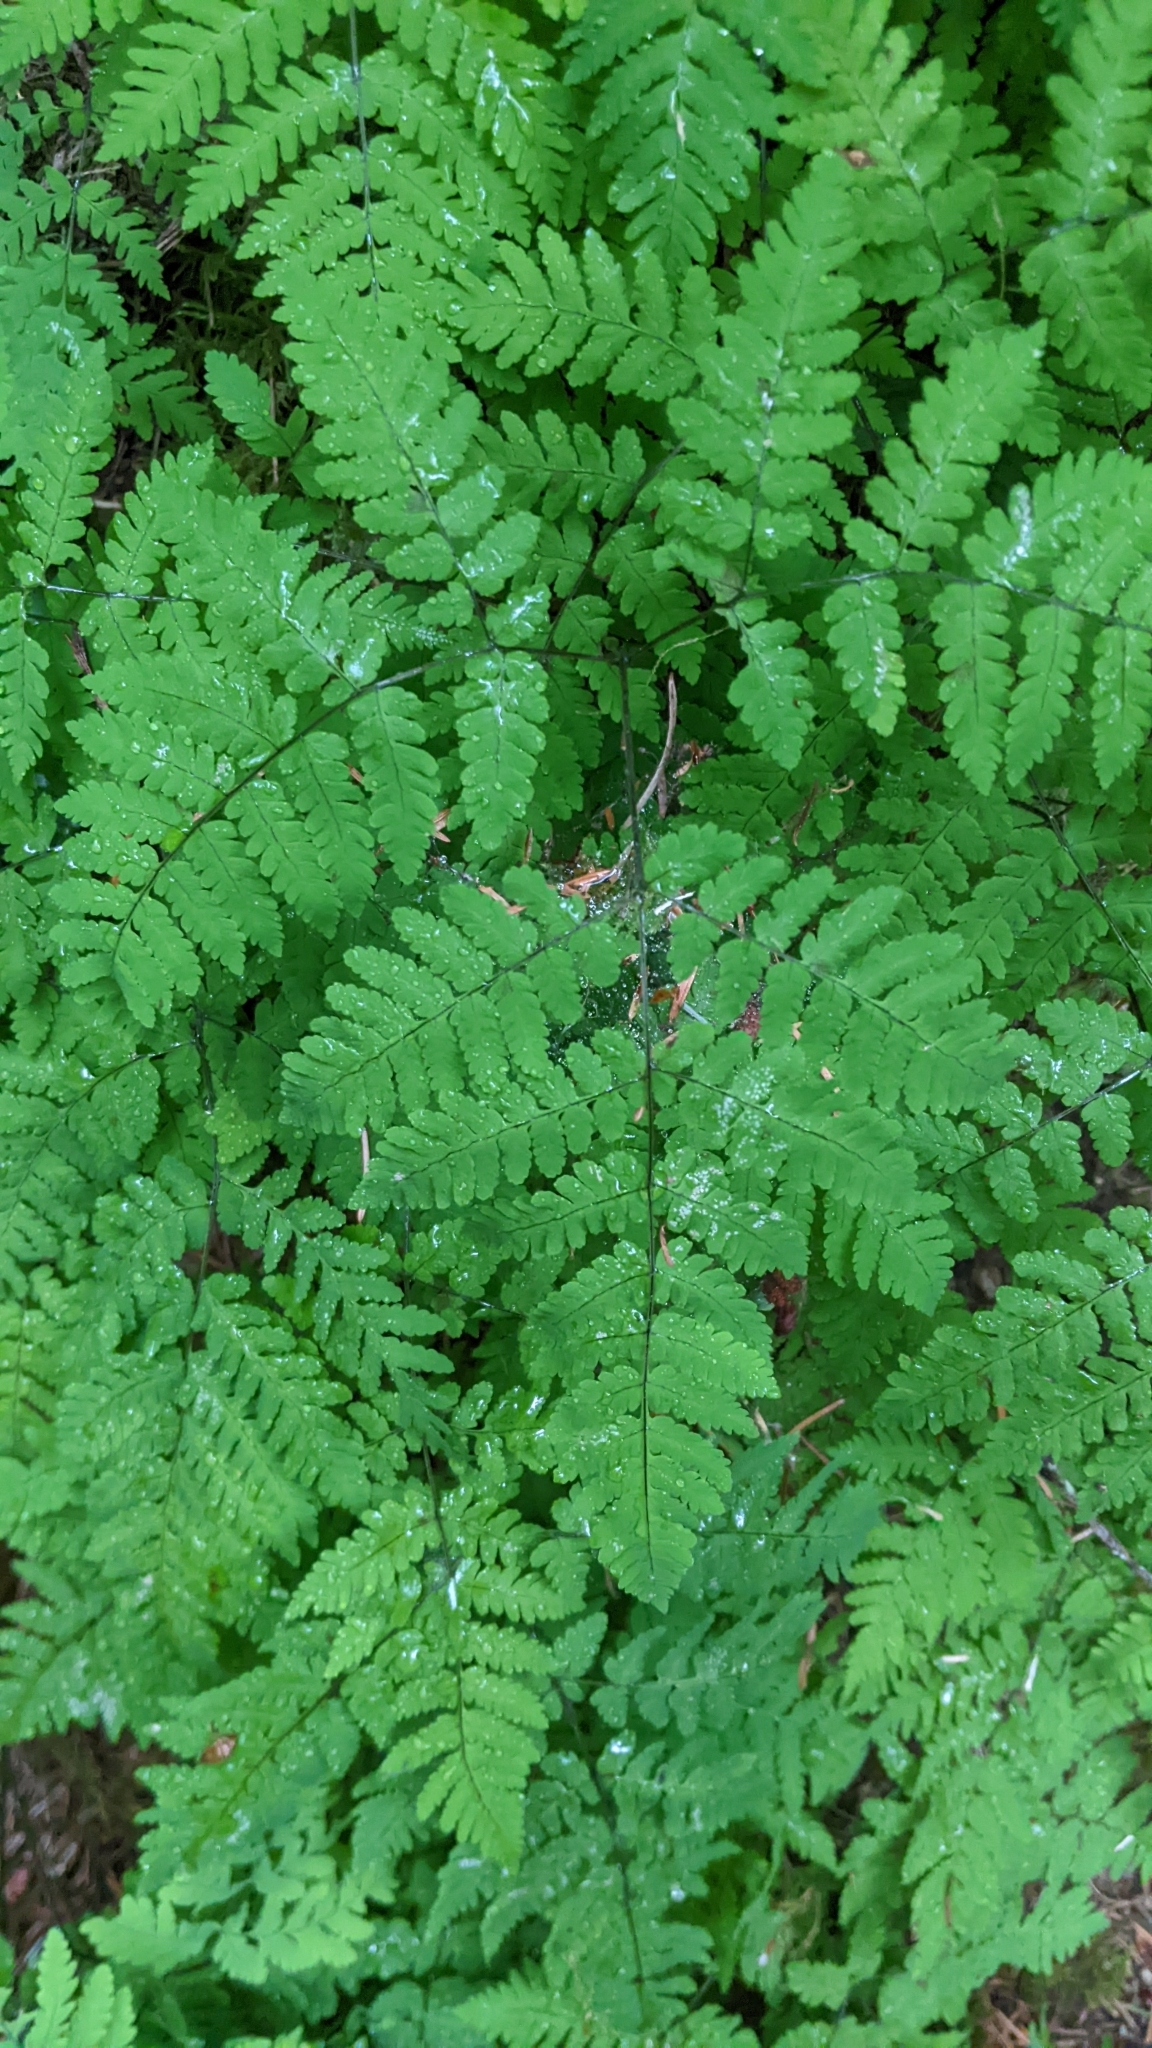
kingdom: Plantae
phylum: Tracheophyta
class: Polypodiopsida
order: Polypodiales
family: Cystopteridaceae
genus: Gymnocarpium
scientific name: Gymnocarpium disjunctum
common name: Western oak fern
